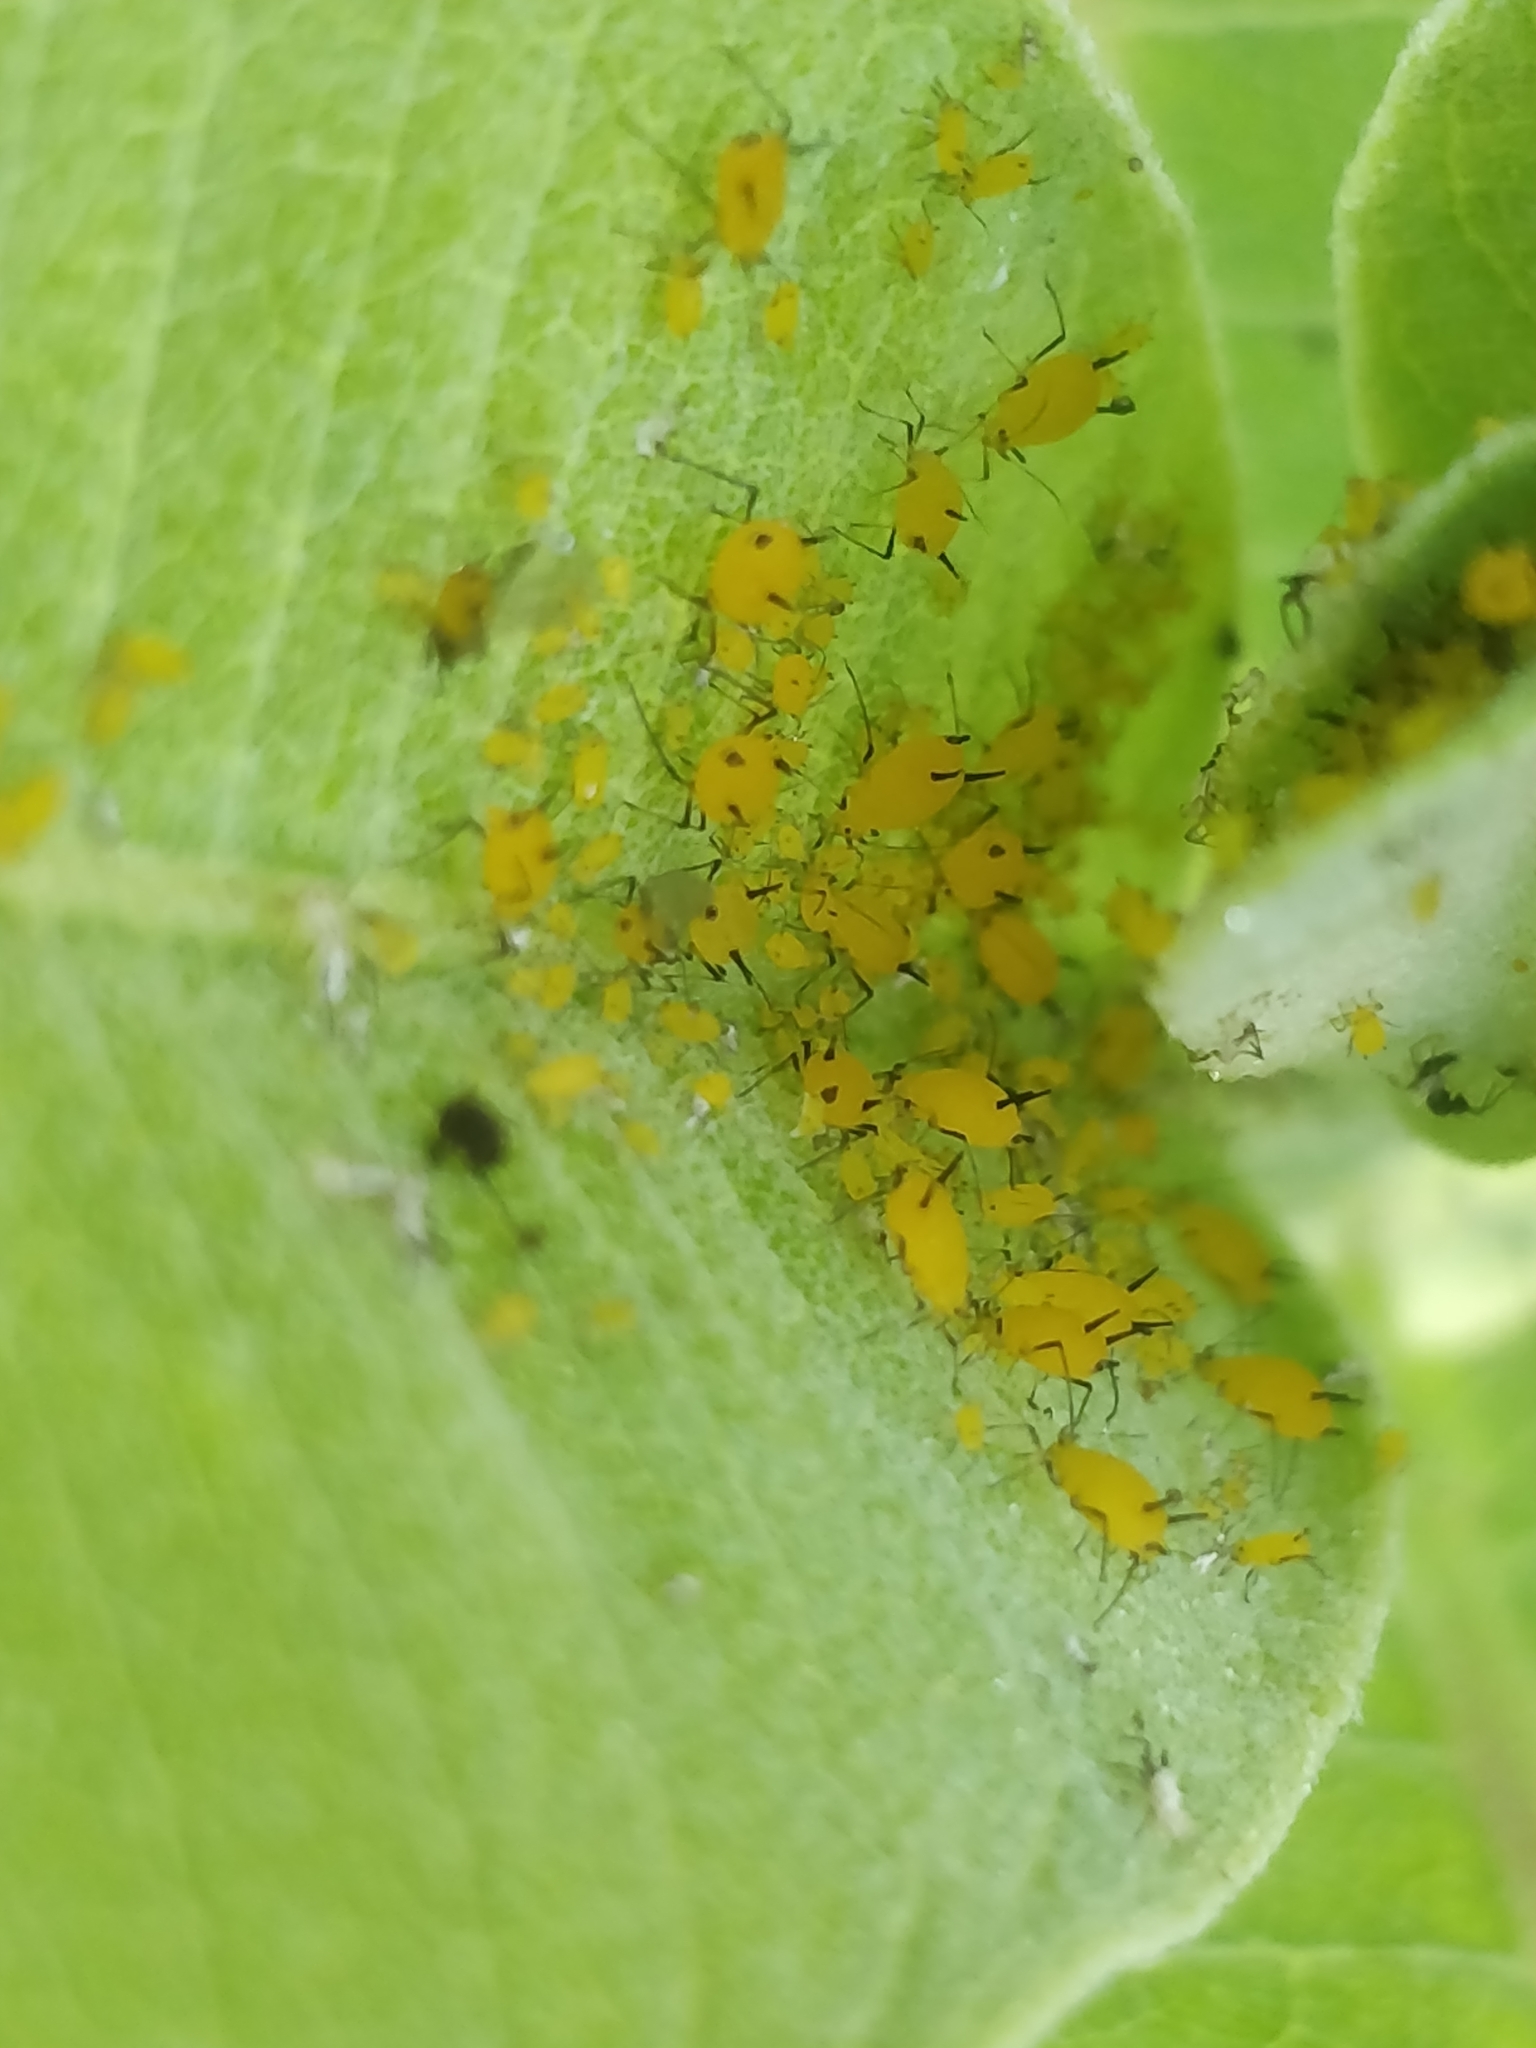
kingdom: Animalia
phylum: Arthropoda
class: Insecta
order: Hemiptera
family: Aphididae
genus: Aphis
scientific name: Aphis nerii
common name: Oleander aphid
